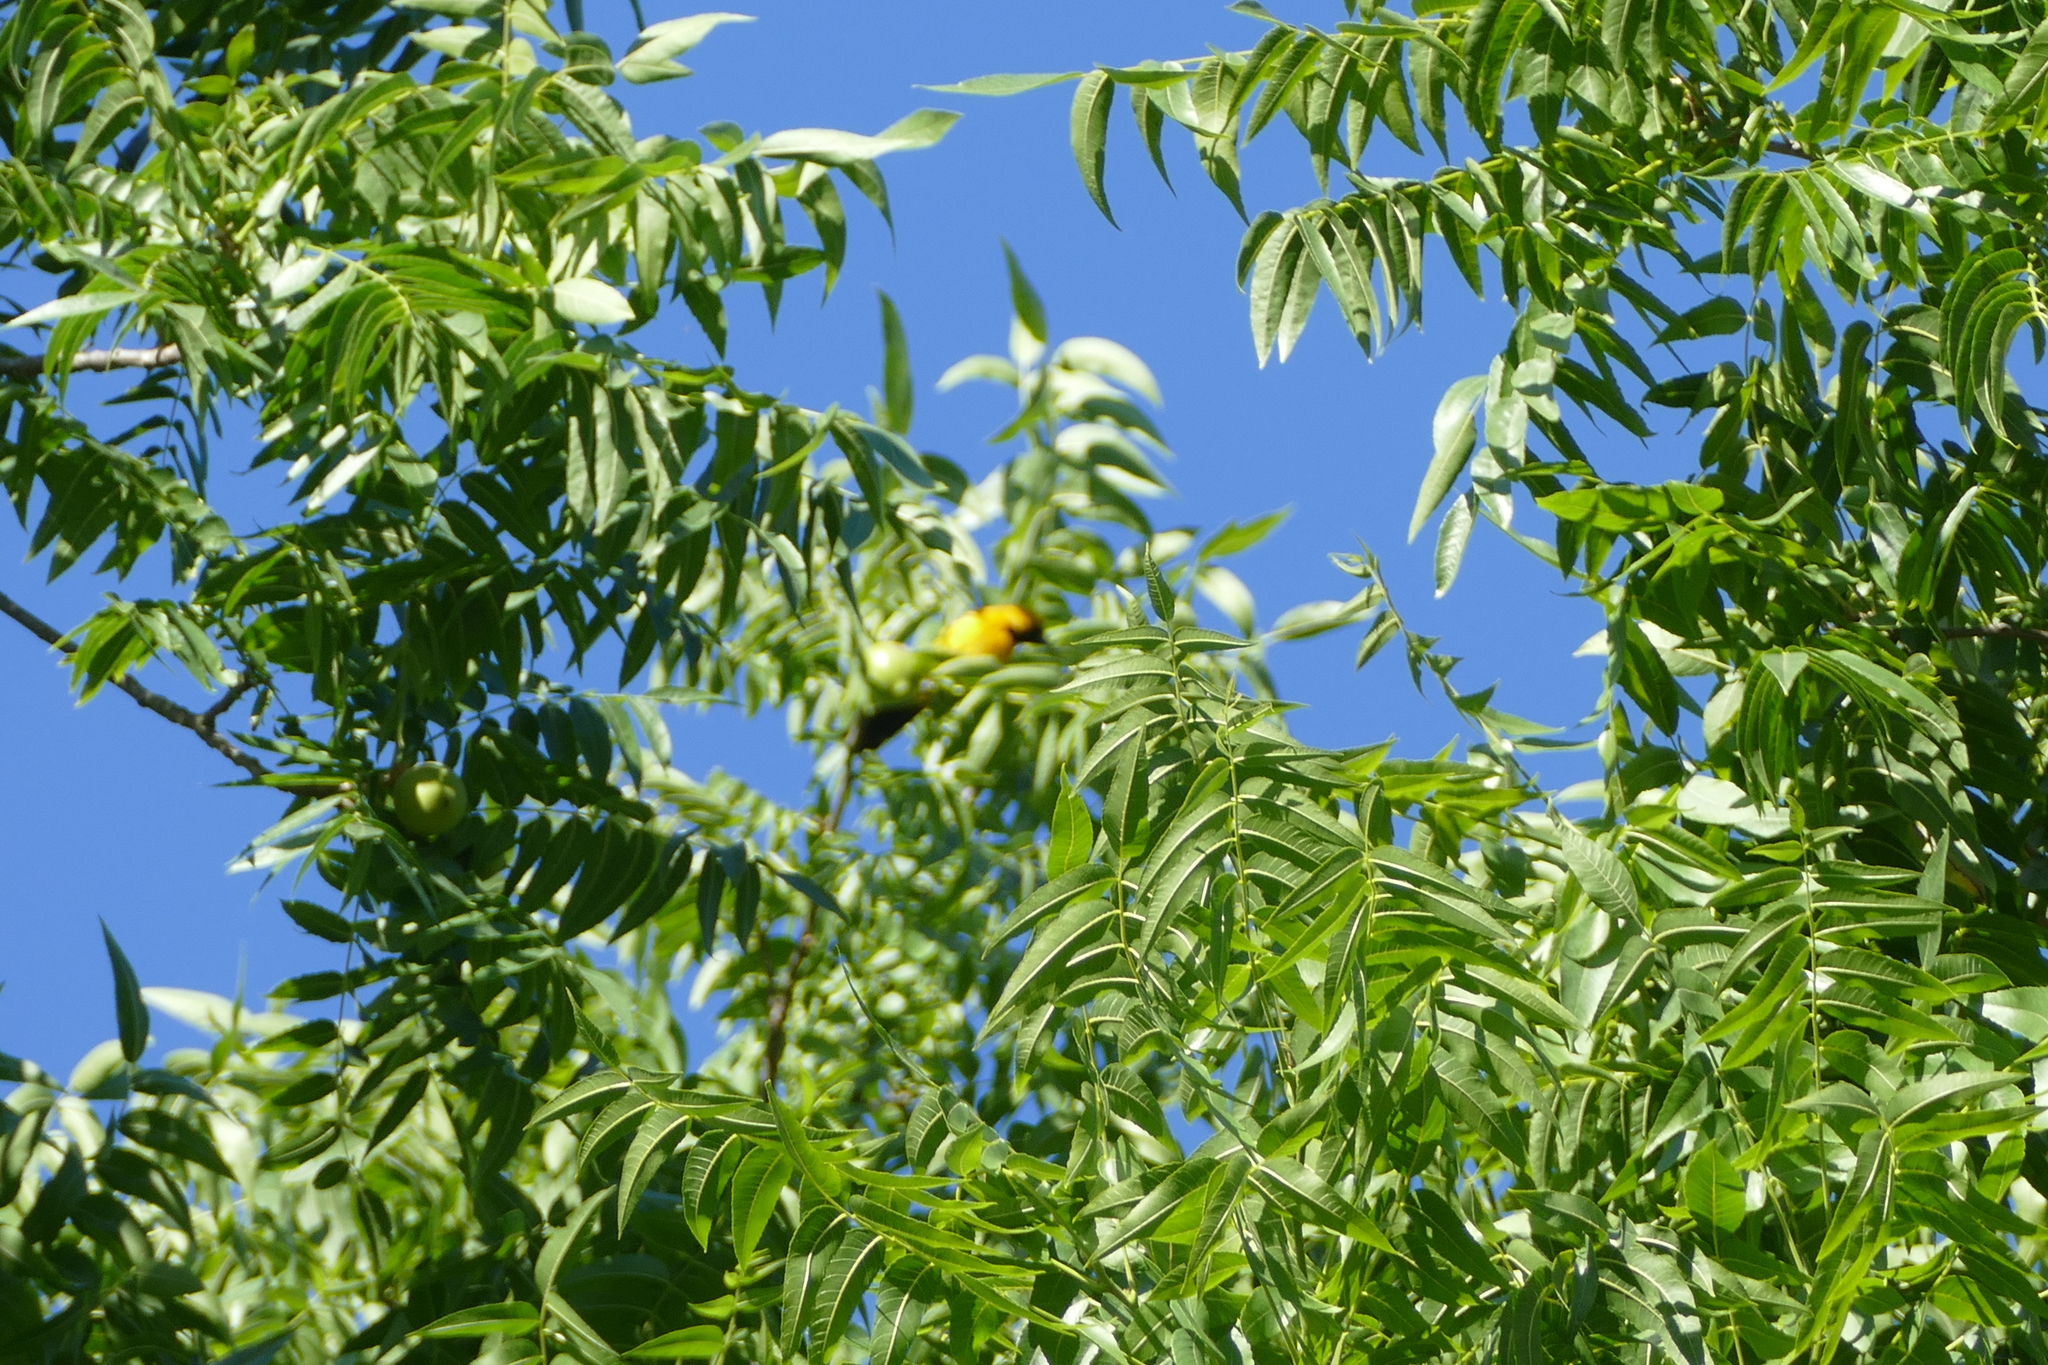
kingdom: Animalia
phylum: Chordata
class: Aves
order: Passeriformes
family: Icteridae
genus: Icterus
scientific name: Icterus bullockii
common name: Bullock's oriole
